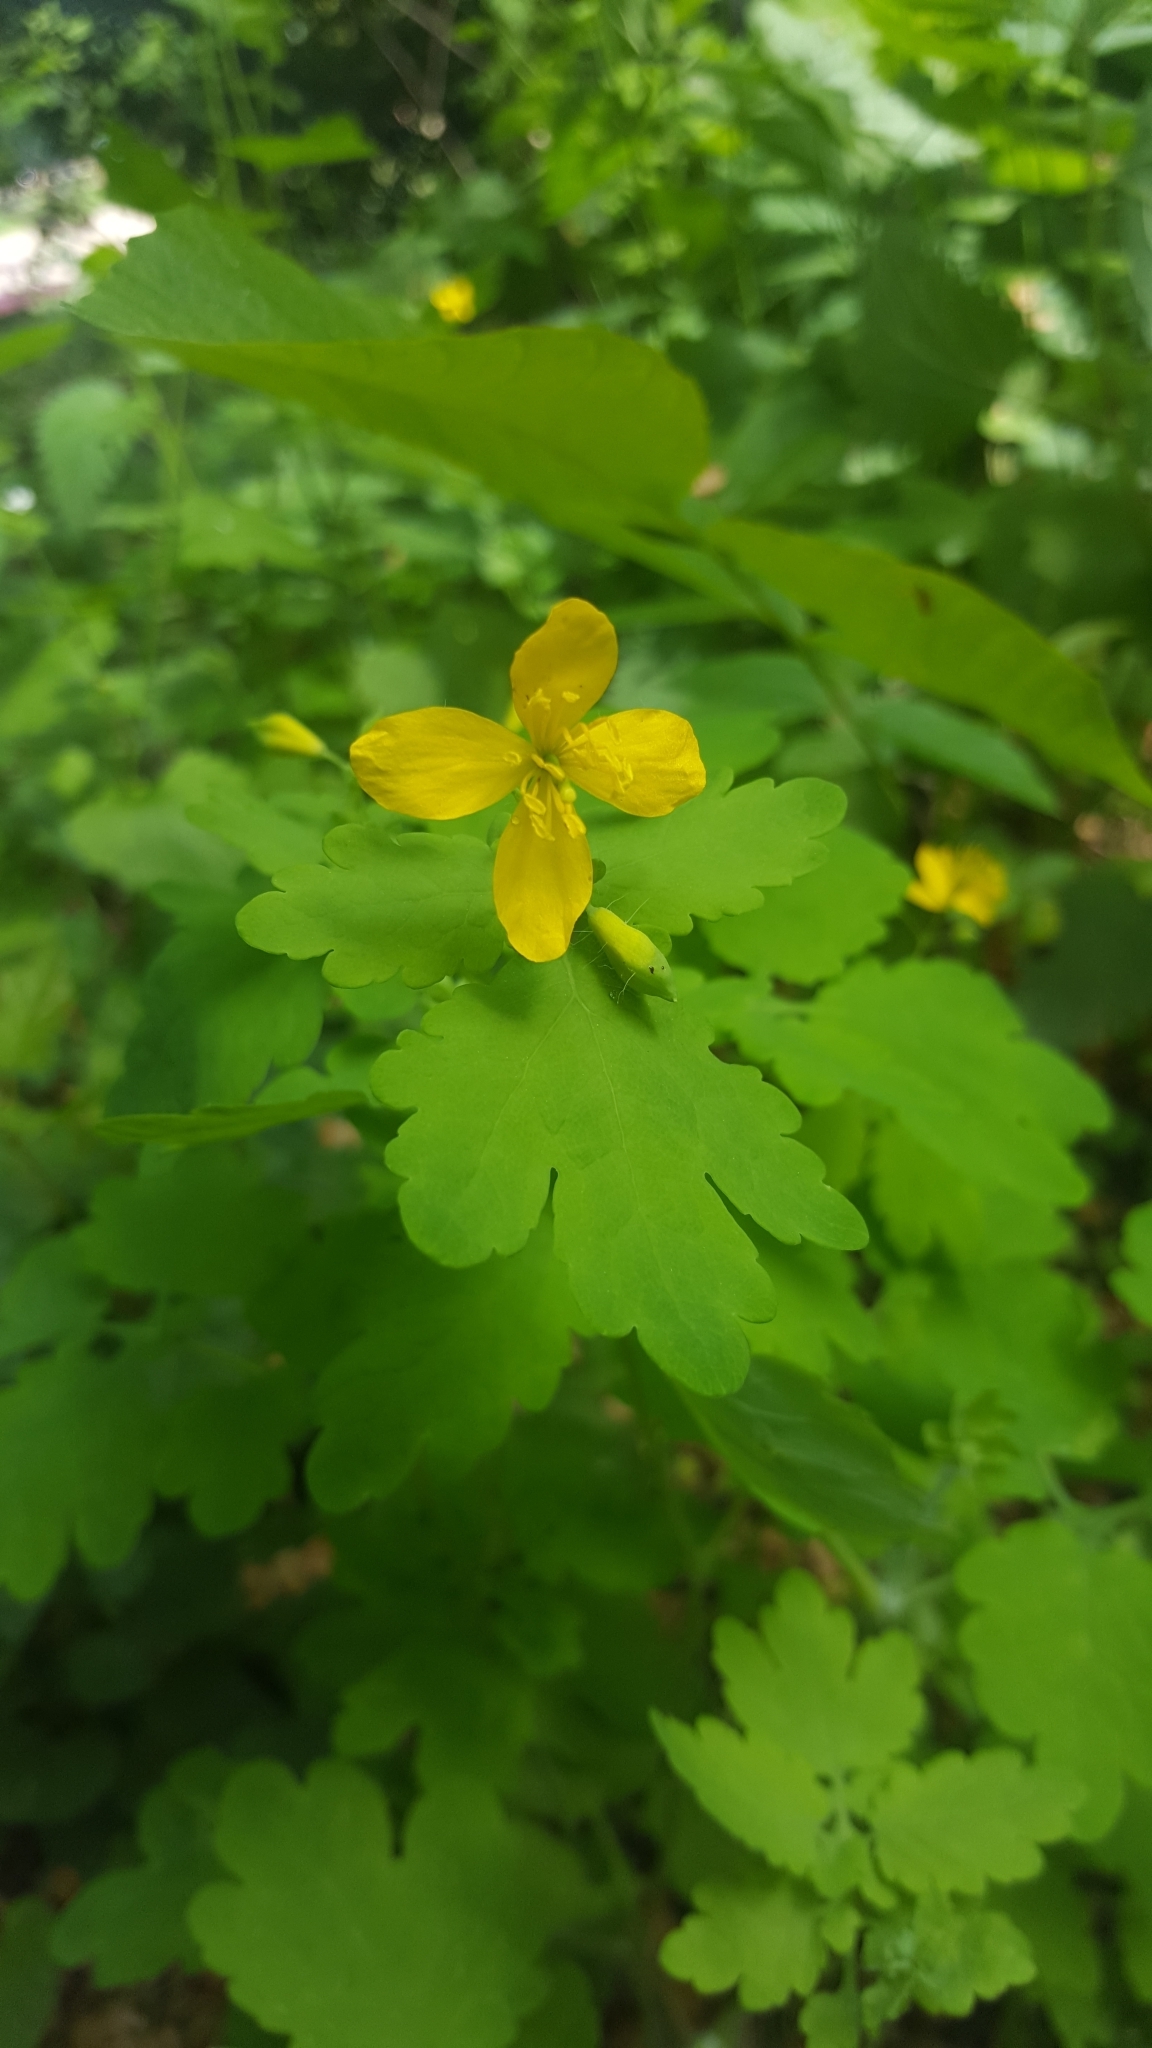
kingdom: Plantae
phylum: Tracheophyta
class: Magnoliopsida
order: Ranunculales
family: Papaveraceae
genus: Chelidonium
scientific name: Chelidonium majus
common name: Greater celandine
